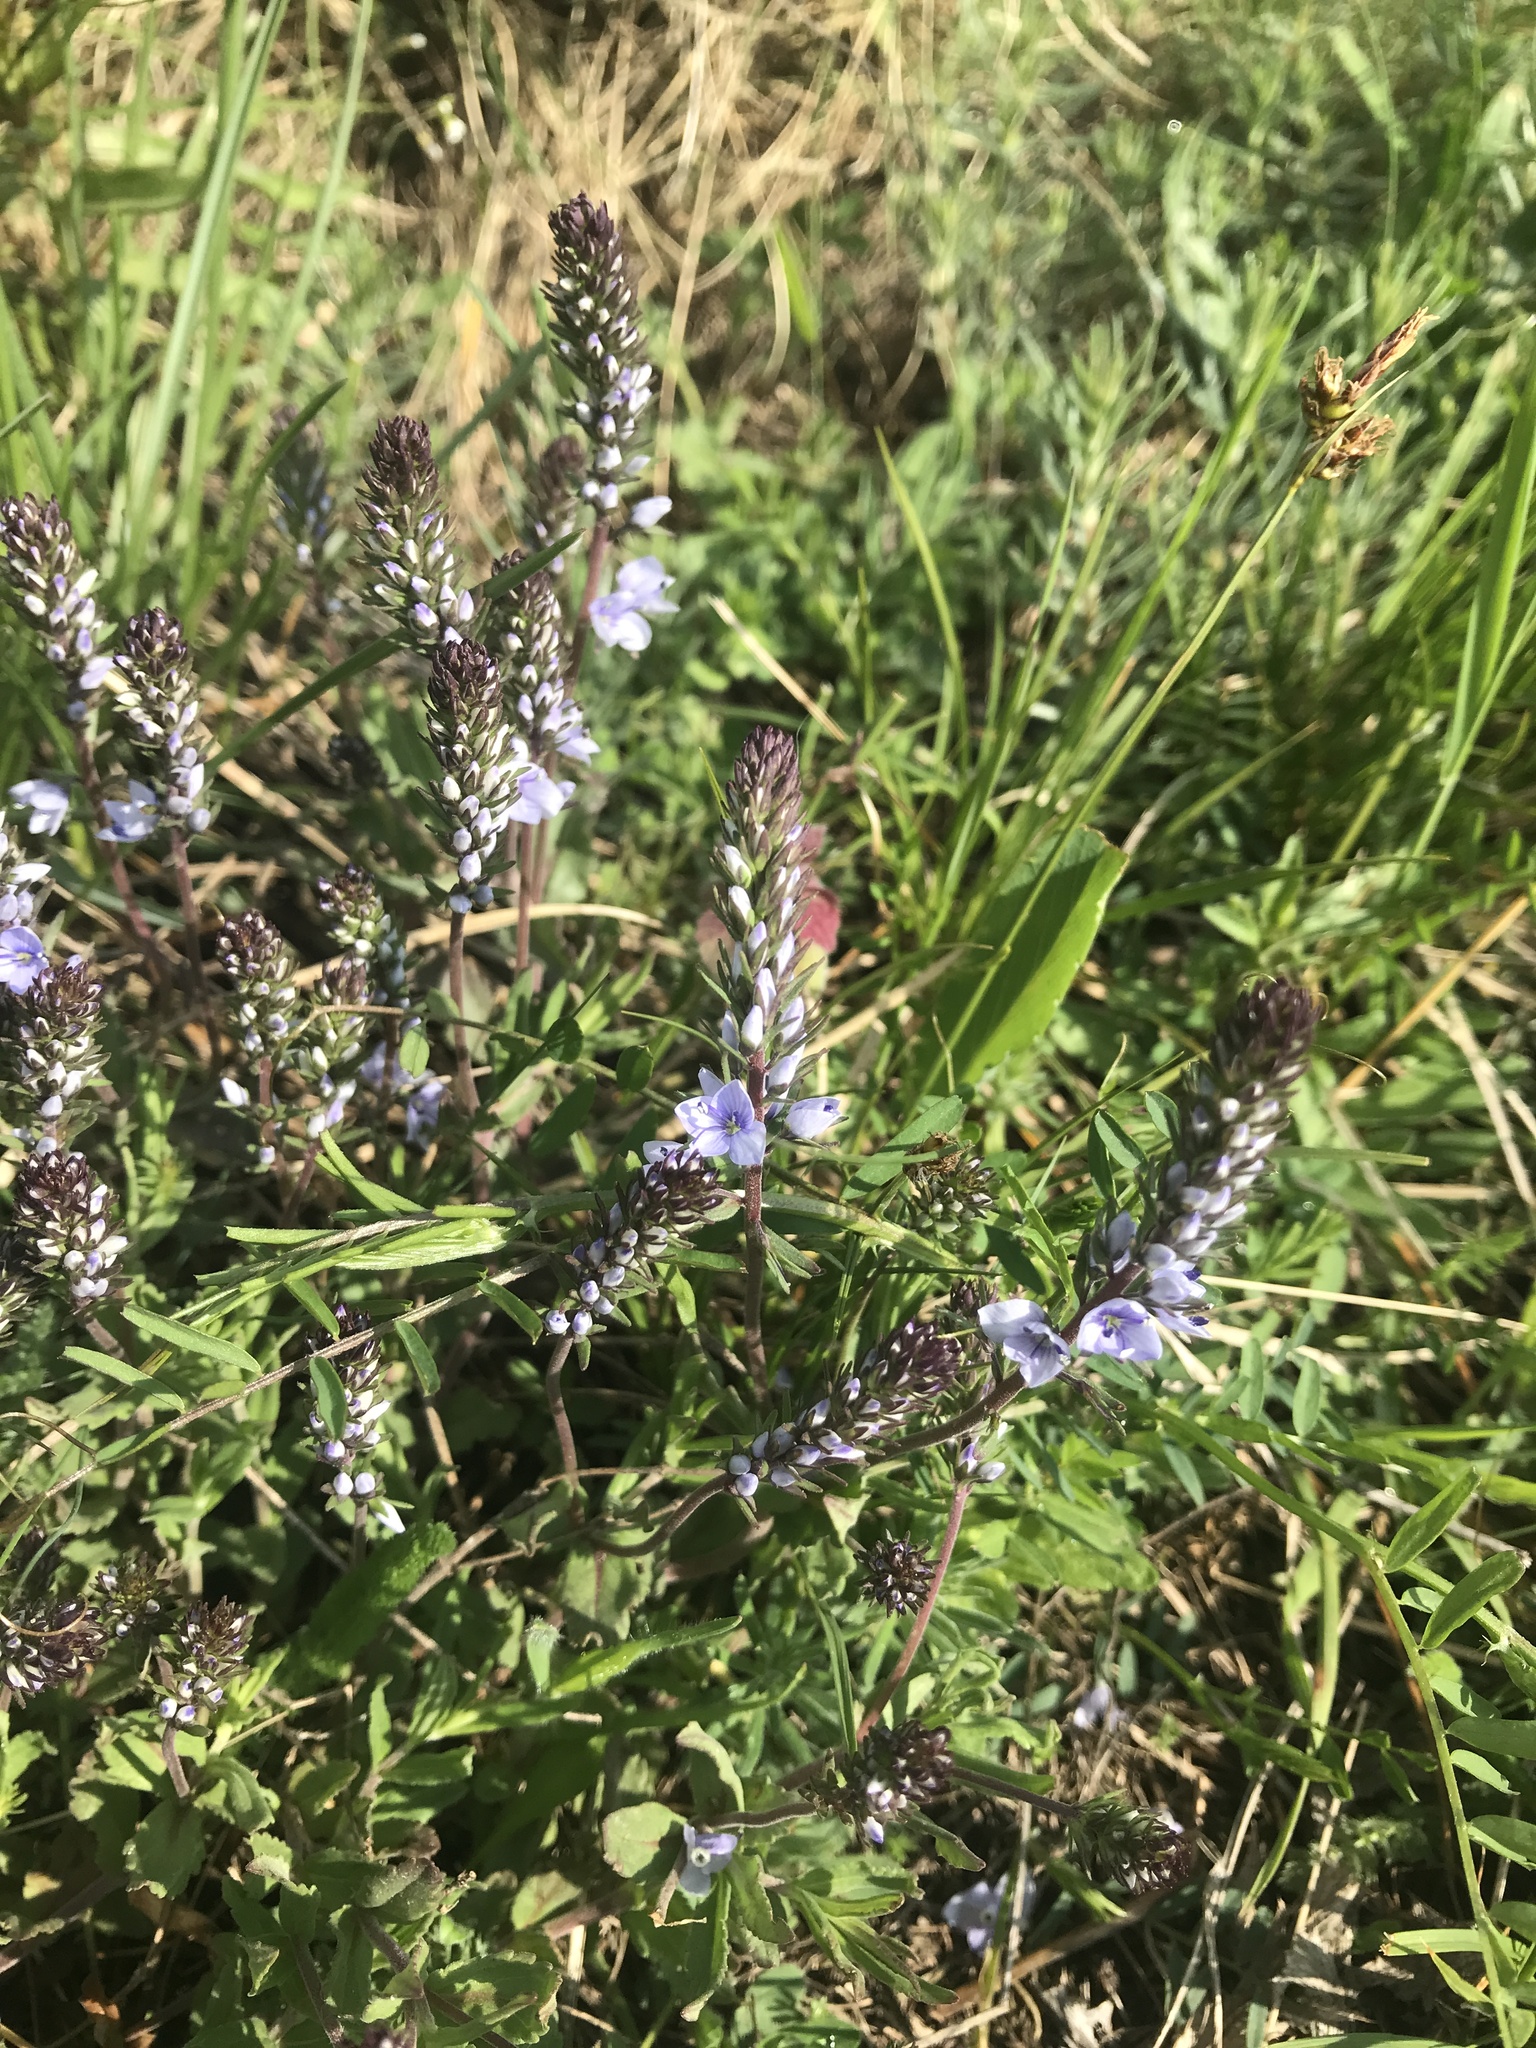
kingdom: Plantae
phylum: Tracheophyta
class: Magnoliopsida
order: Lamiales
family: Plantaginaceae
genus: Veronica
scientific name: Veronica prostrata
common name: Prostrate speedwell
